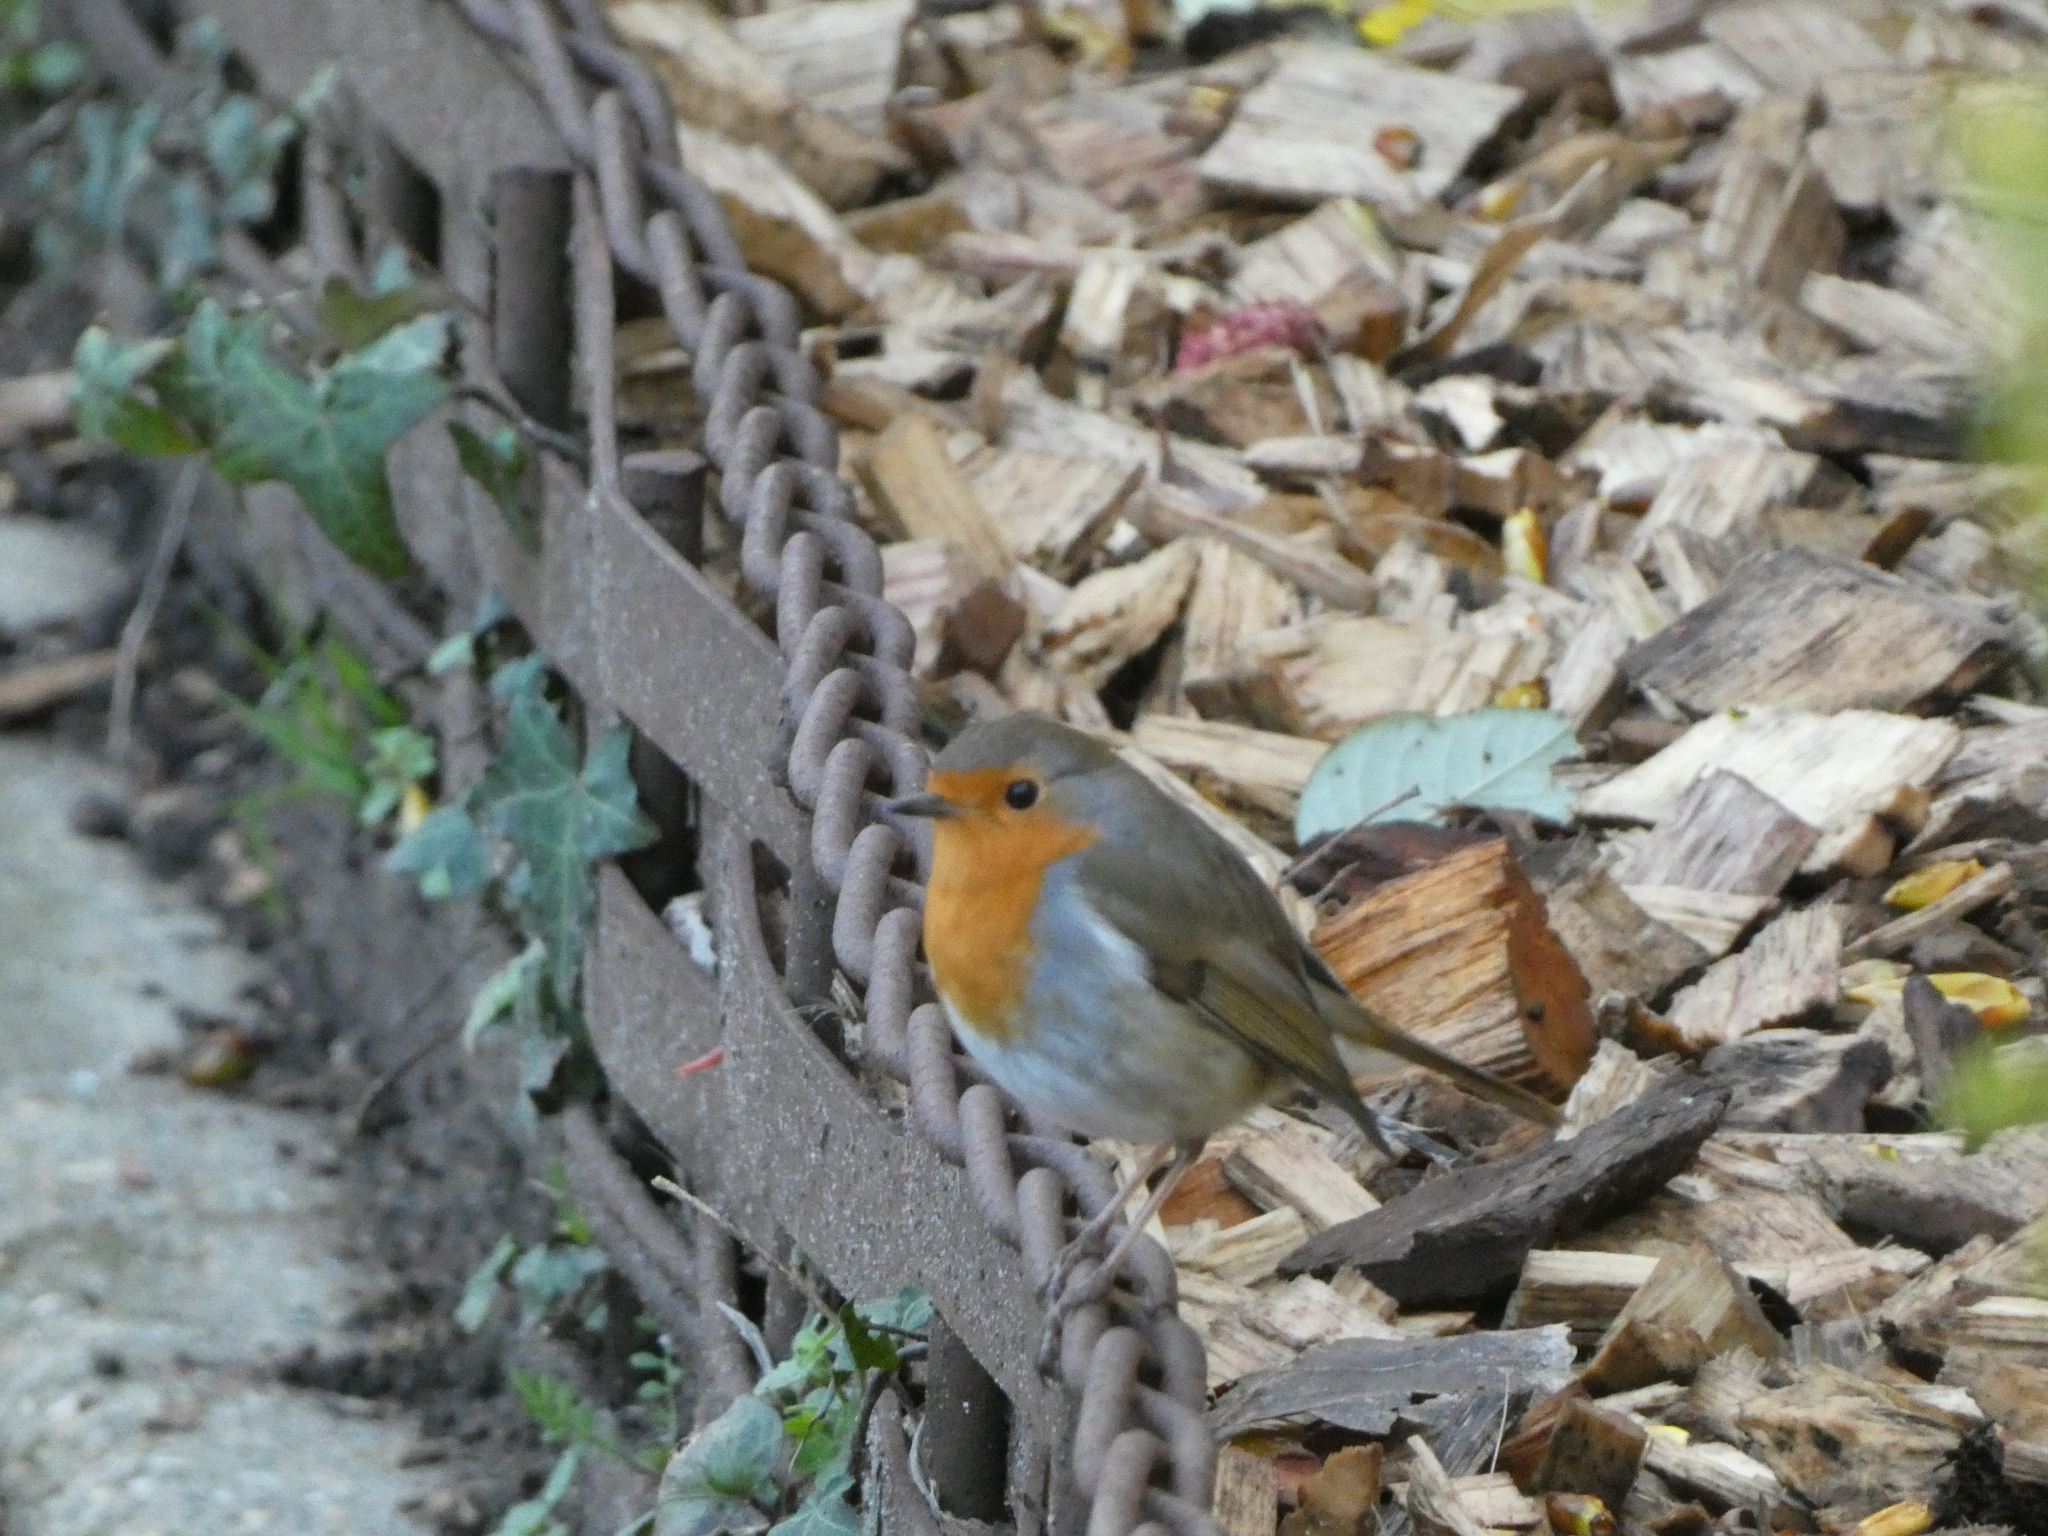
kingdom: Animalia
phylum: Chordata
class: Aves
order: Passeriformes
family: Muscicapidae
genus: Erithacus
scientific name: Erithacus rubecula
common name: European robin
